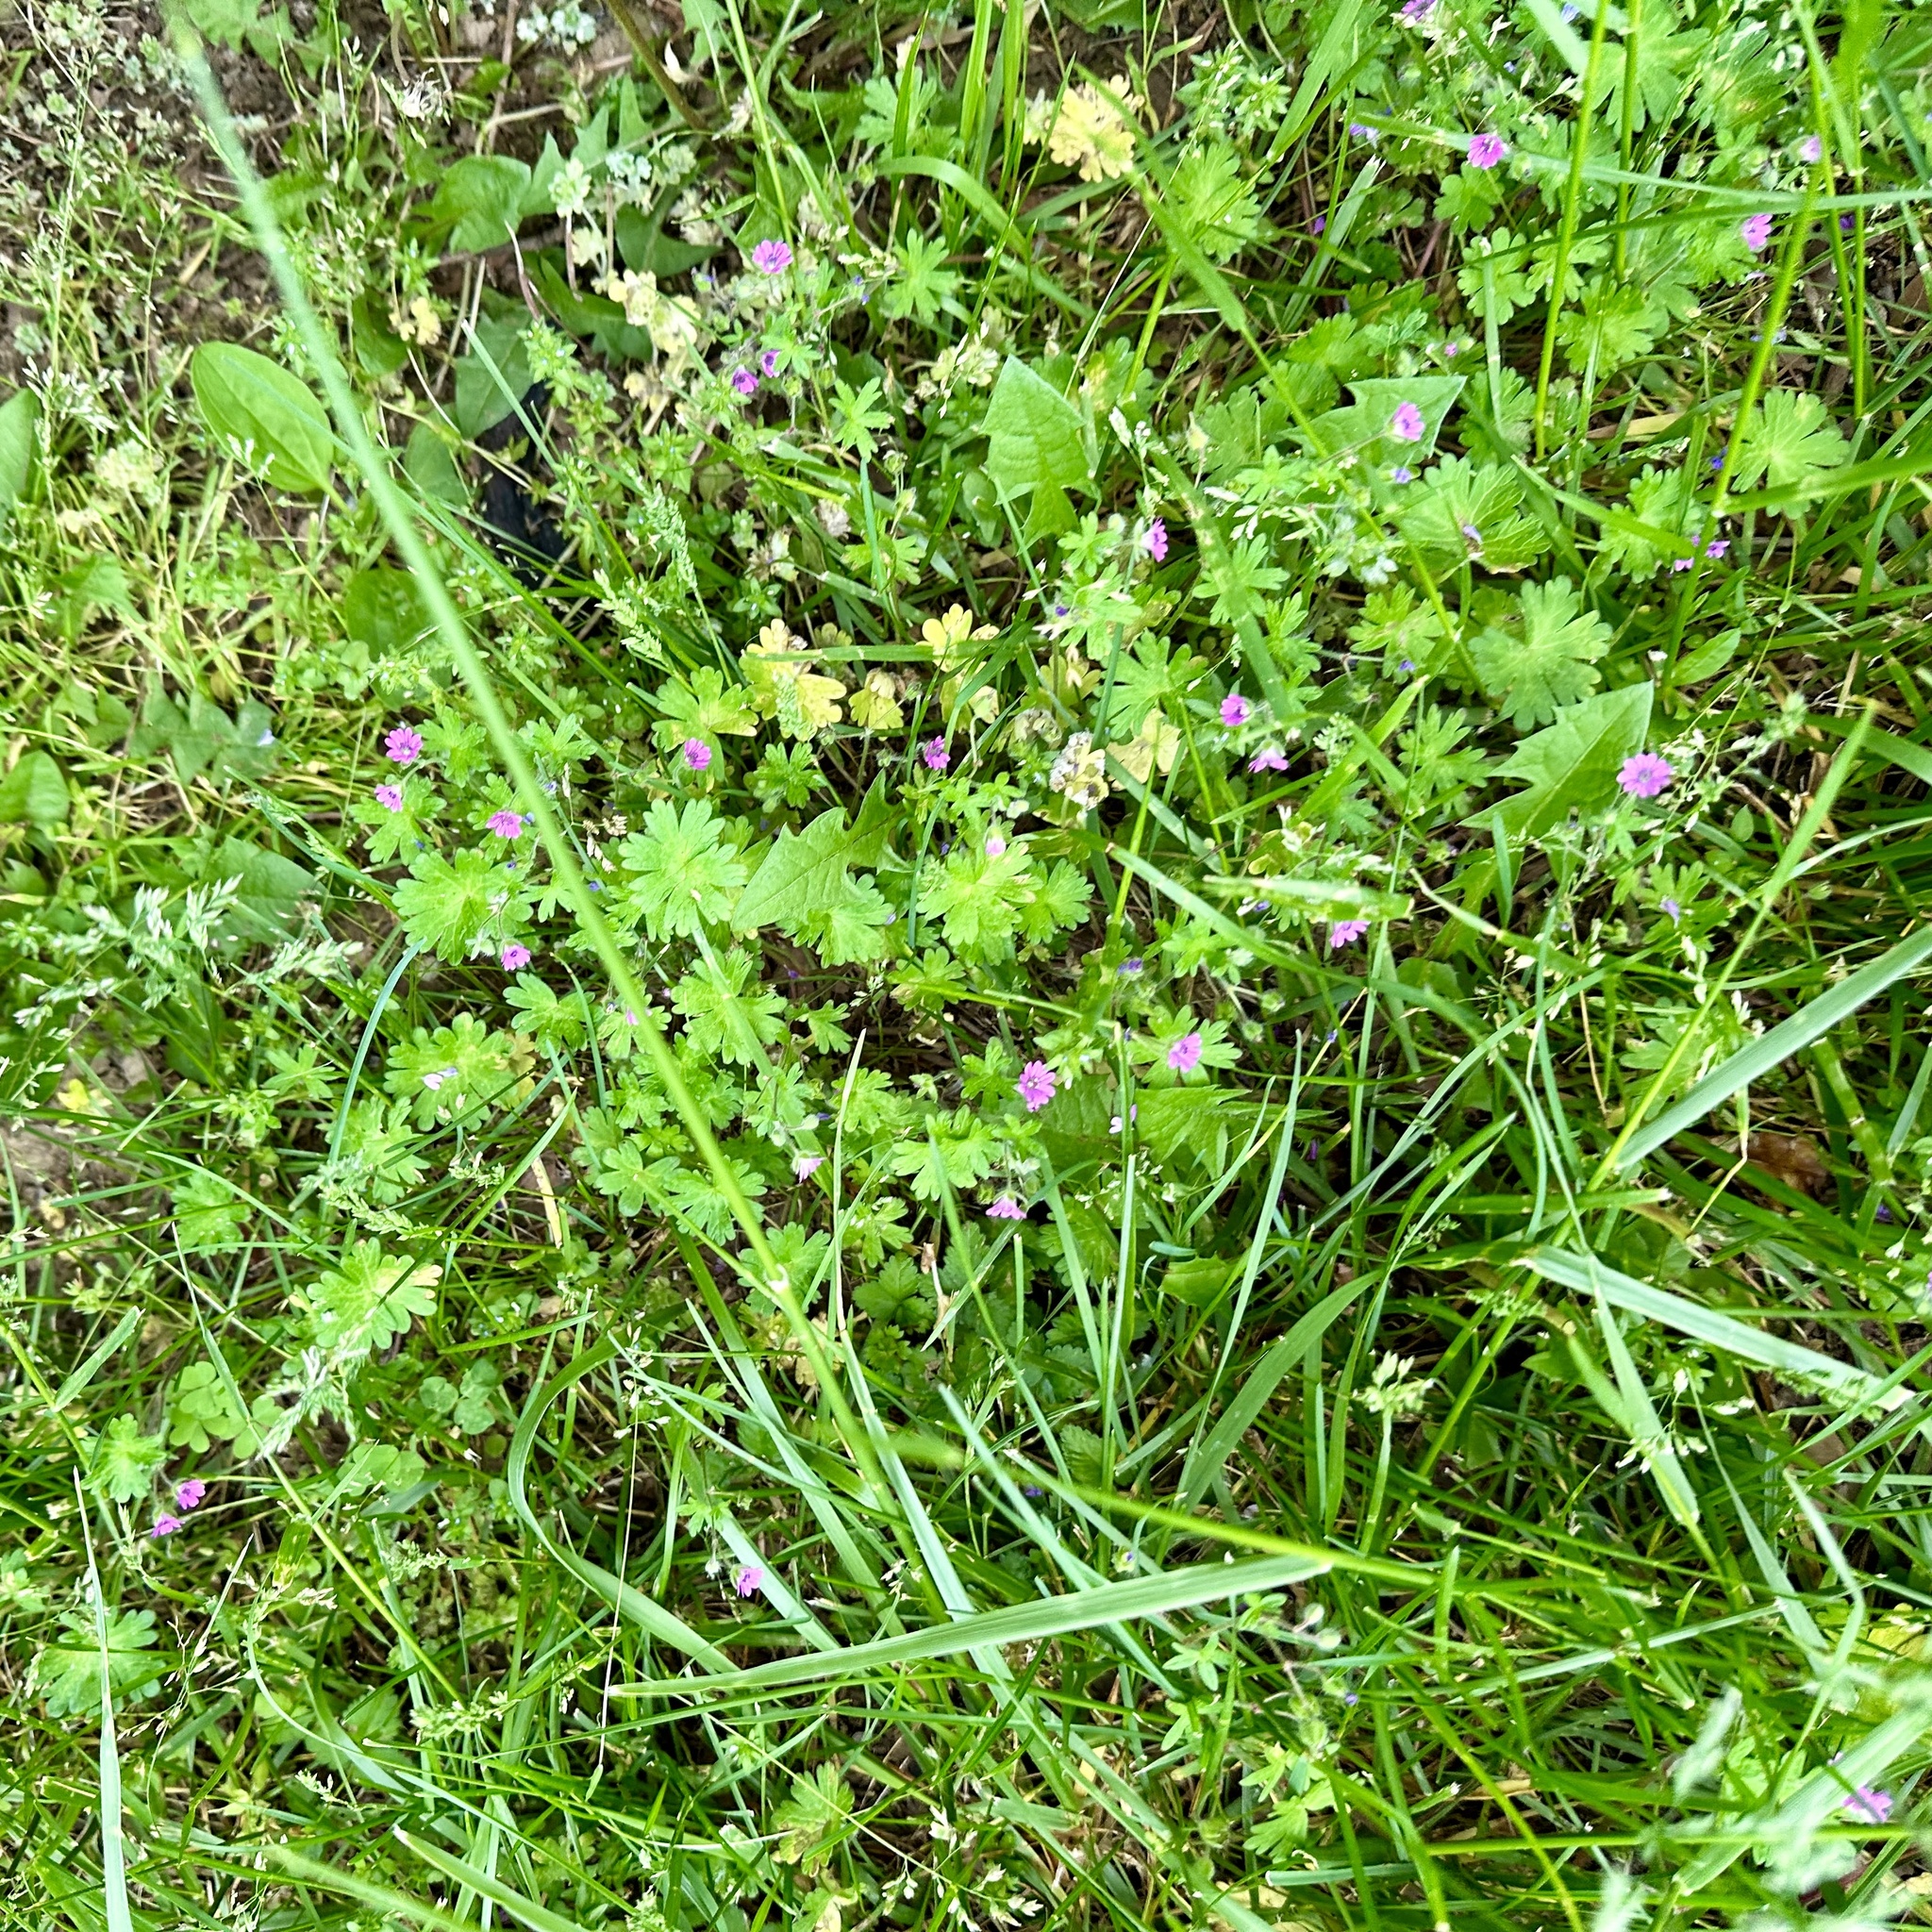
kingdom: Plantae
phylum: Tracheophyta
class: Magnoliopsida
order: Geraniales
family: Geraniaceae
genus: Geranium
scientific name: Geranium molle
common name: Dove's-foot crane's-bill
